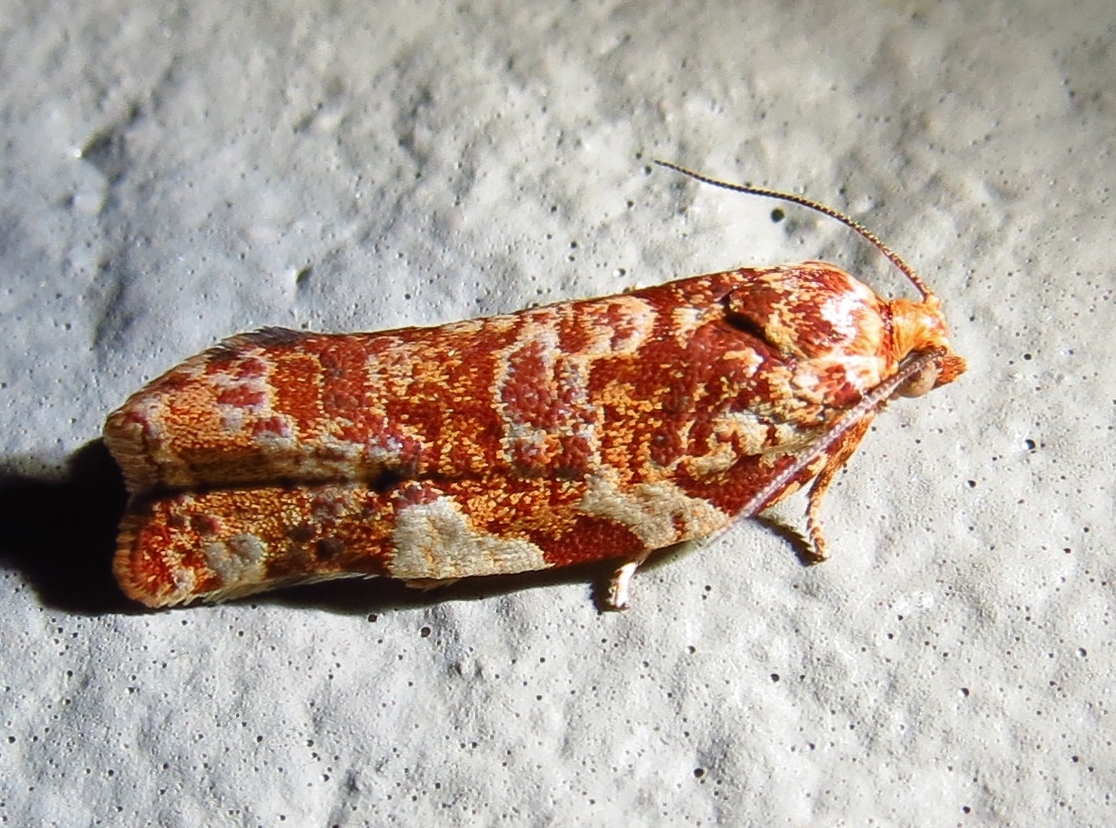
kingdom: Animalia
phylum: Arthropoda
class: Insecta
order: Lepidoptera
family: Tortricidae
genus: Choristoneura
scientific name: Choristoneura houstonana
